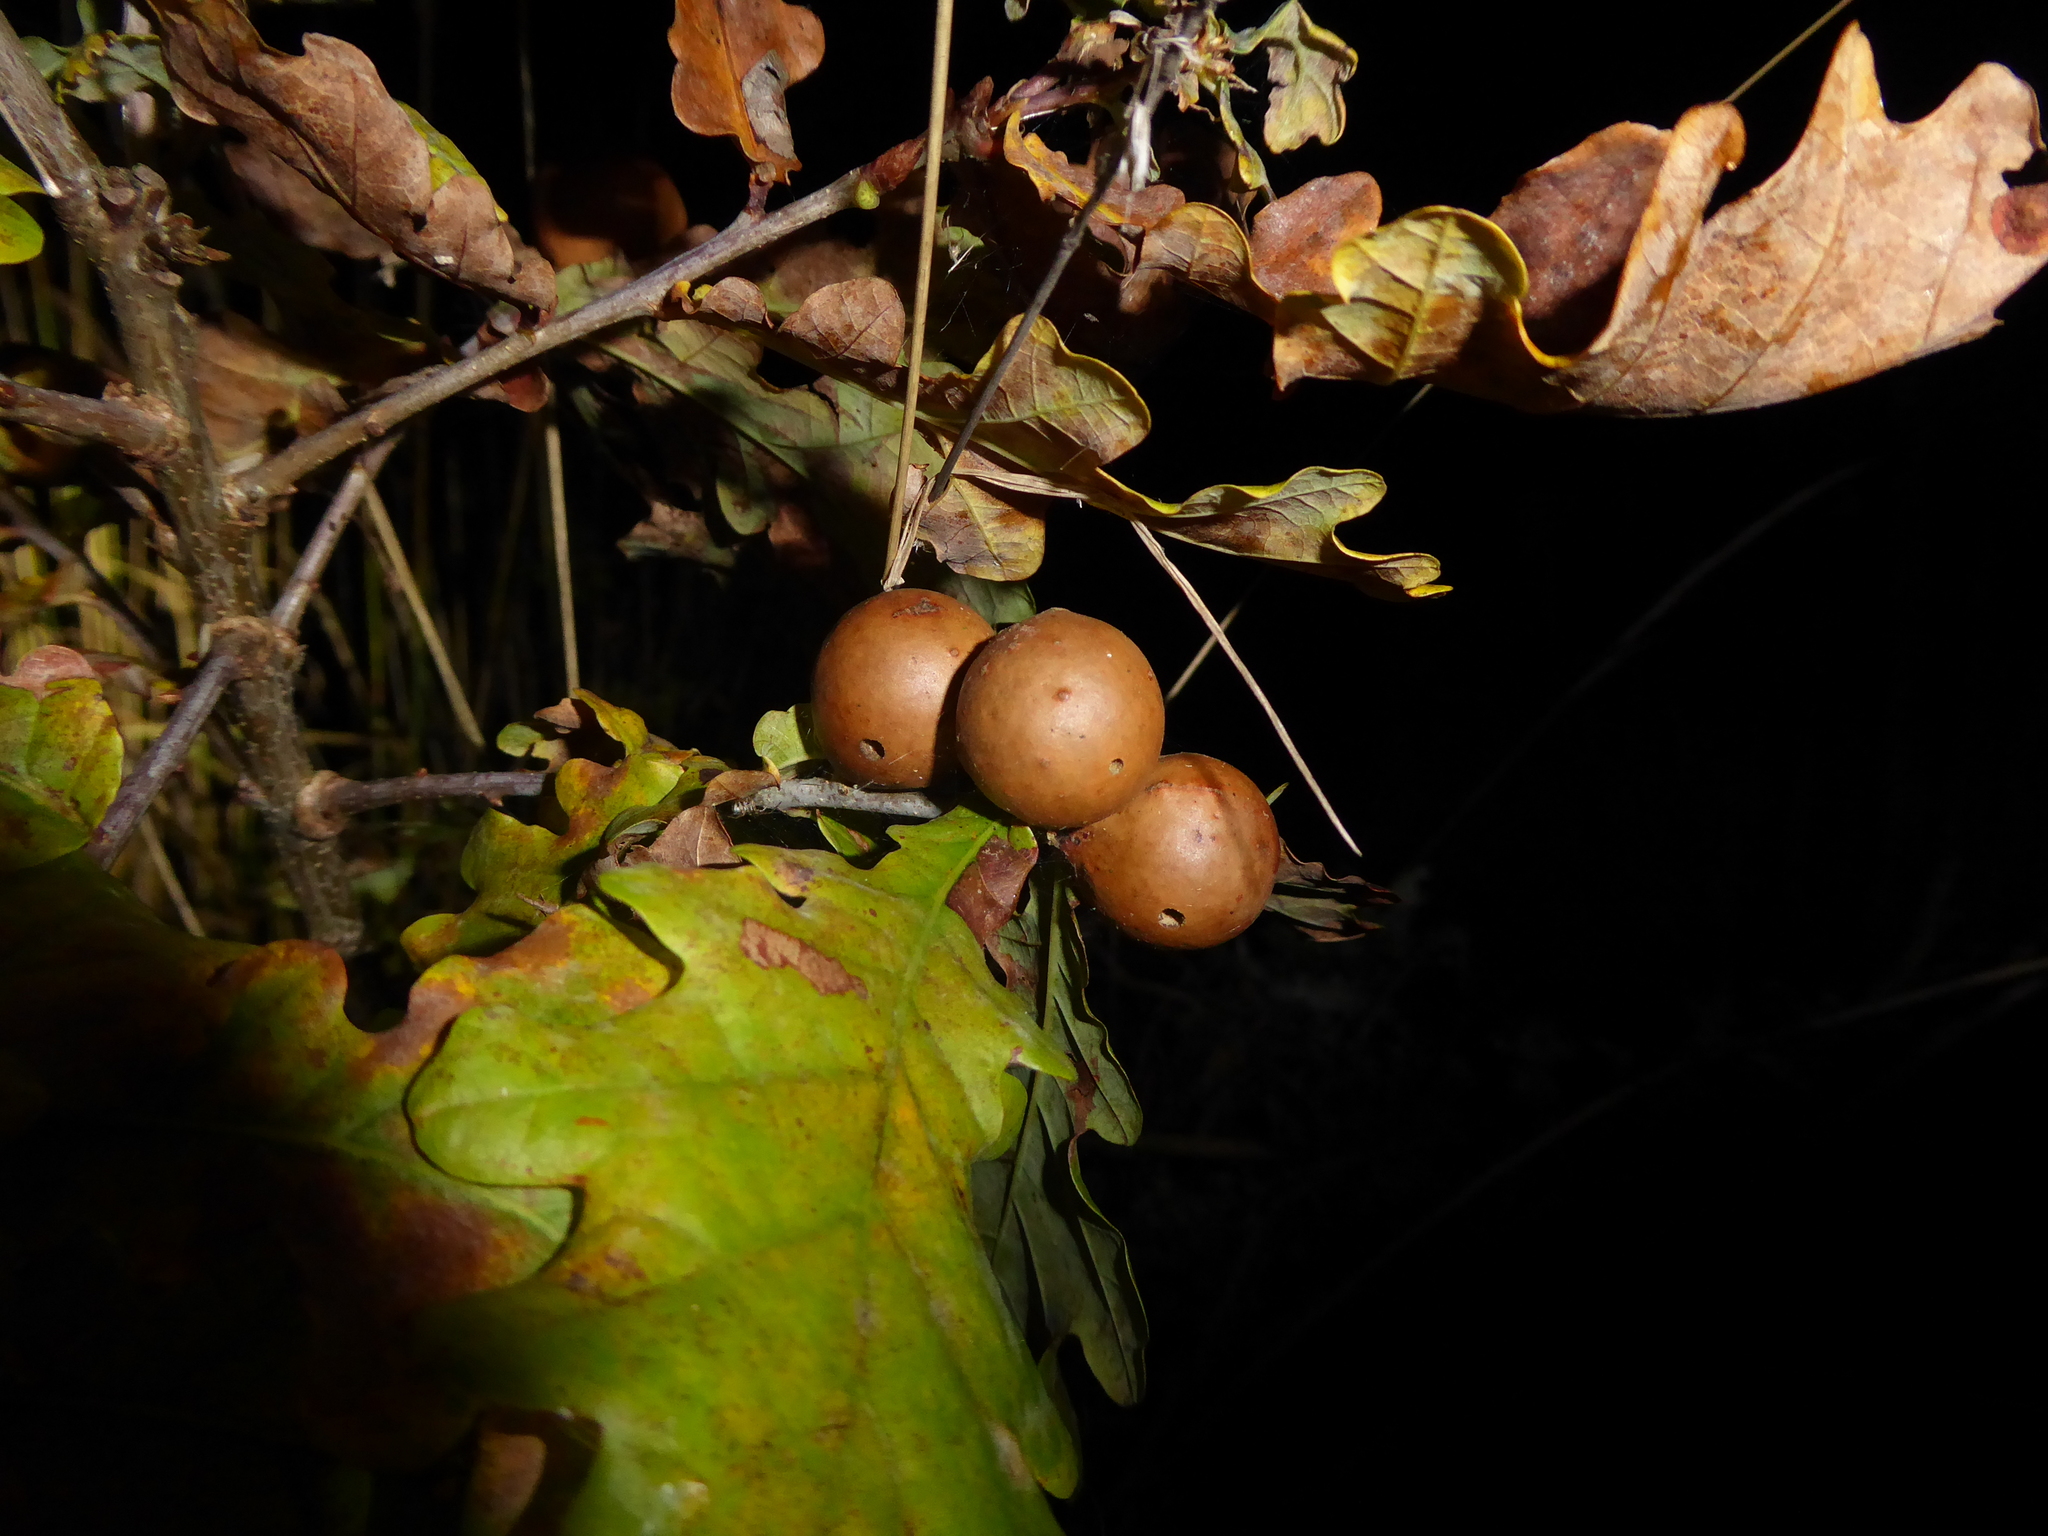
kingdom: Animalia
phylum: Arthropoda
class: Insecta
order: Hymenoptera
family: Cynipidae
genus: Andricus
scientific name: Andricus kollari
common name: Marble gall
